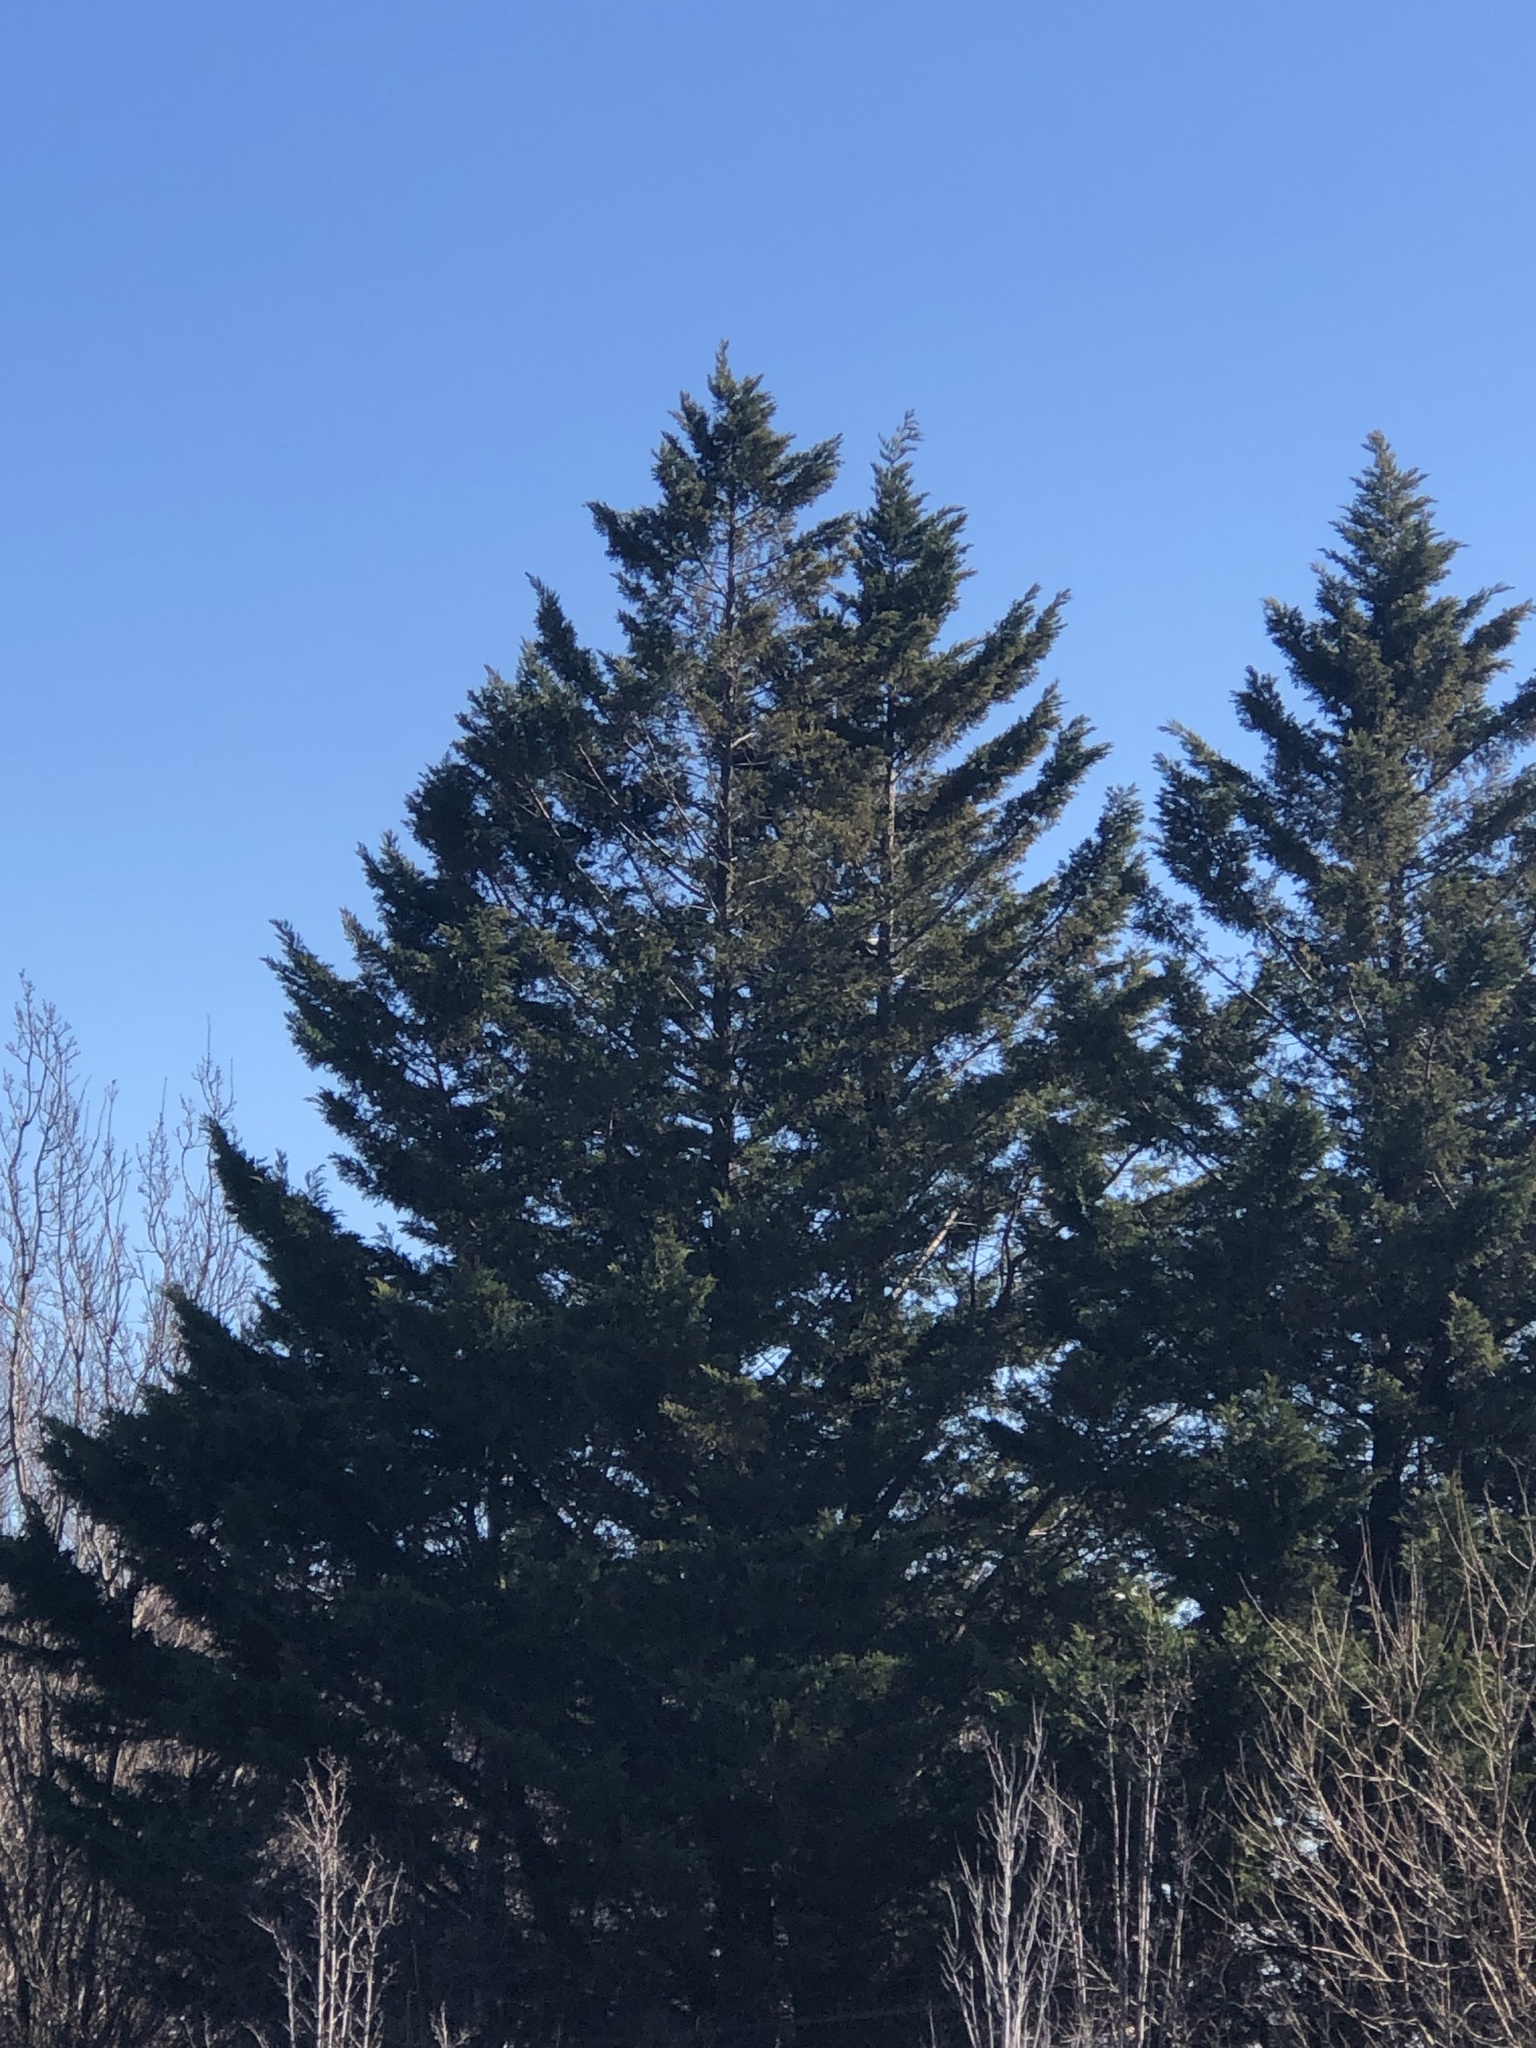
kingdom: Plantae
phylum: Tracheophyta
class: Pinopsida
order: Pinales
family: Pinaceae
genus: Pinus
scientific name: Pinus strobus
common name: Weymouth pine
